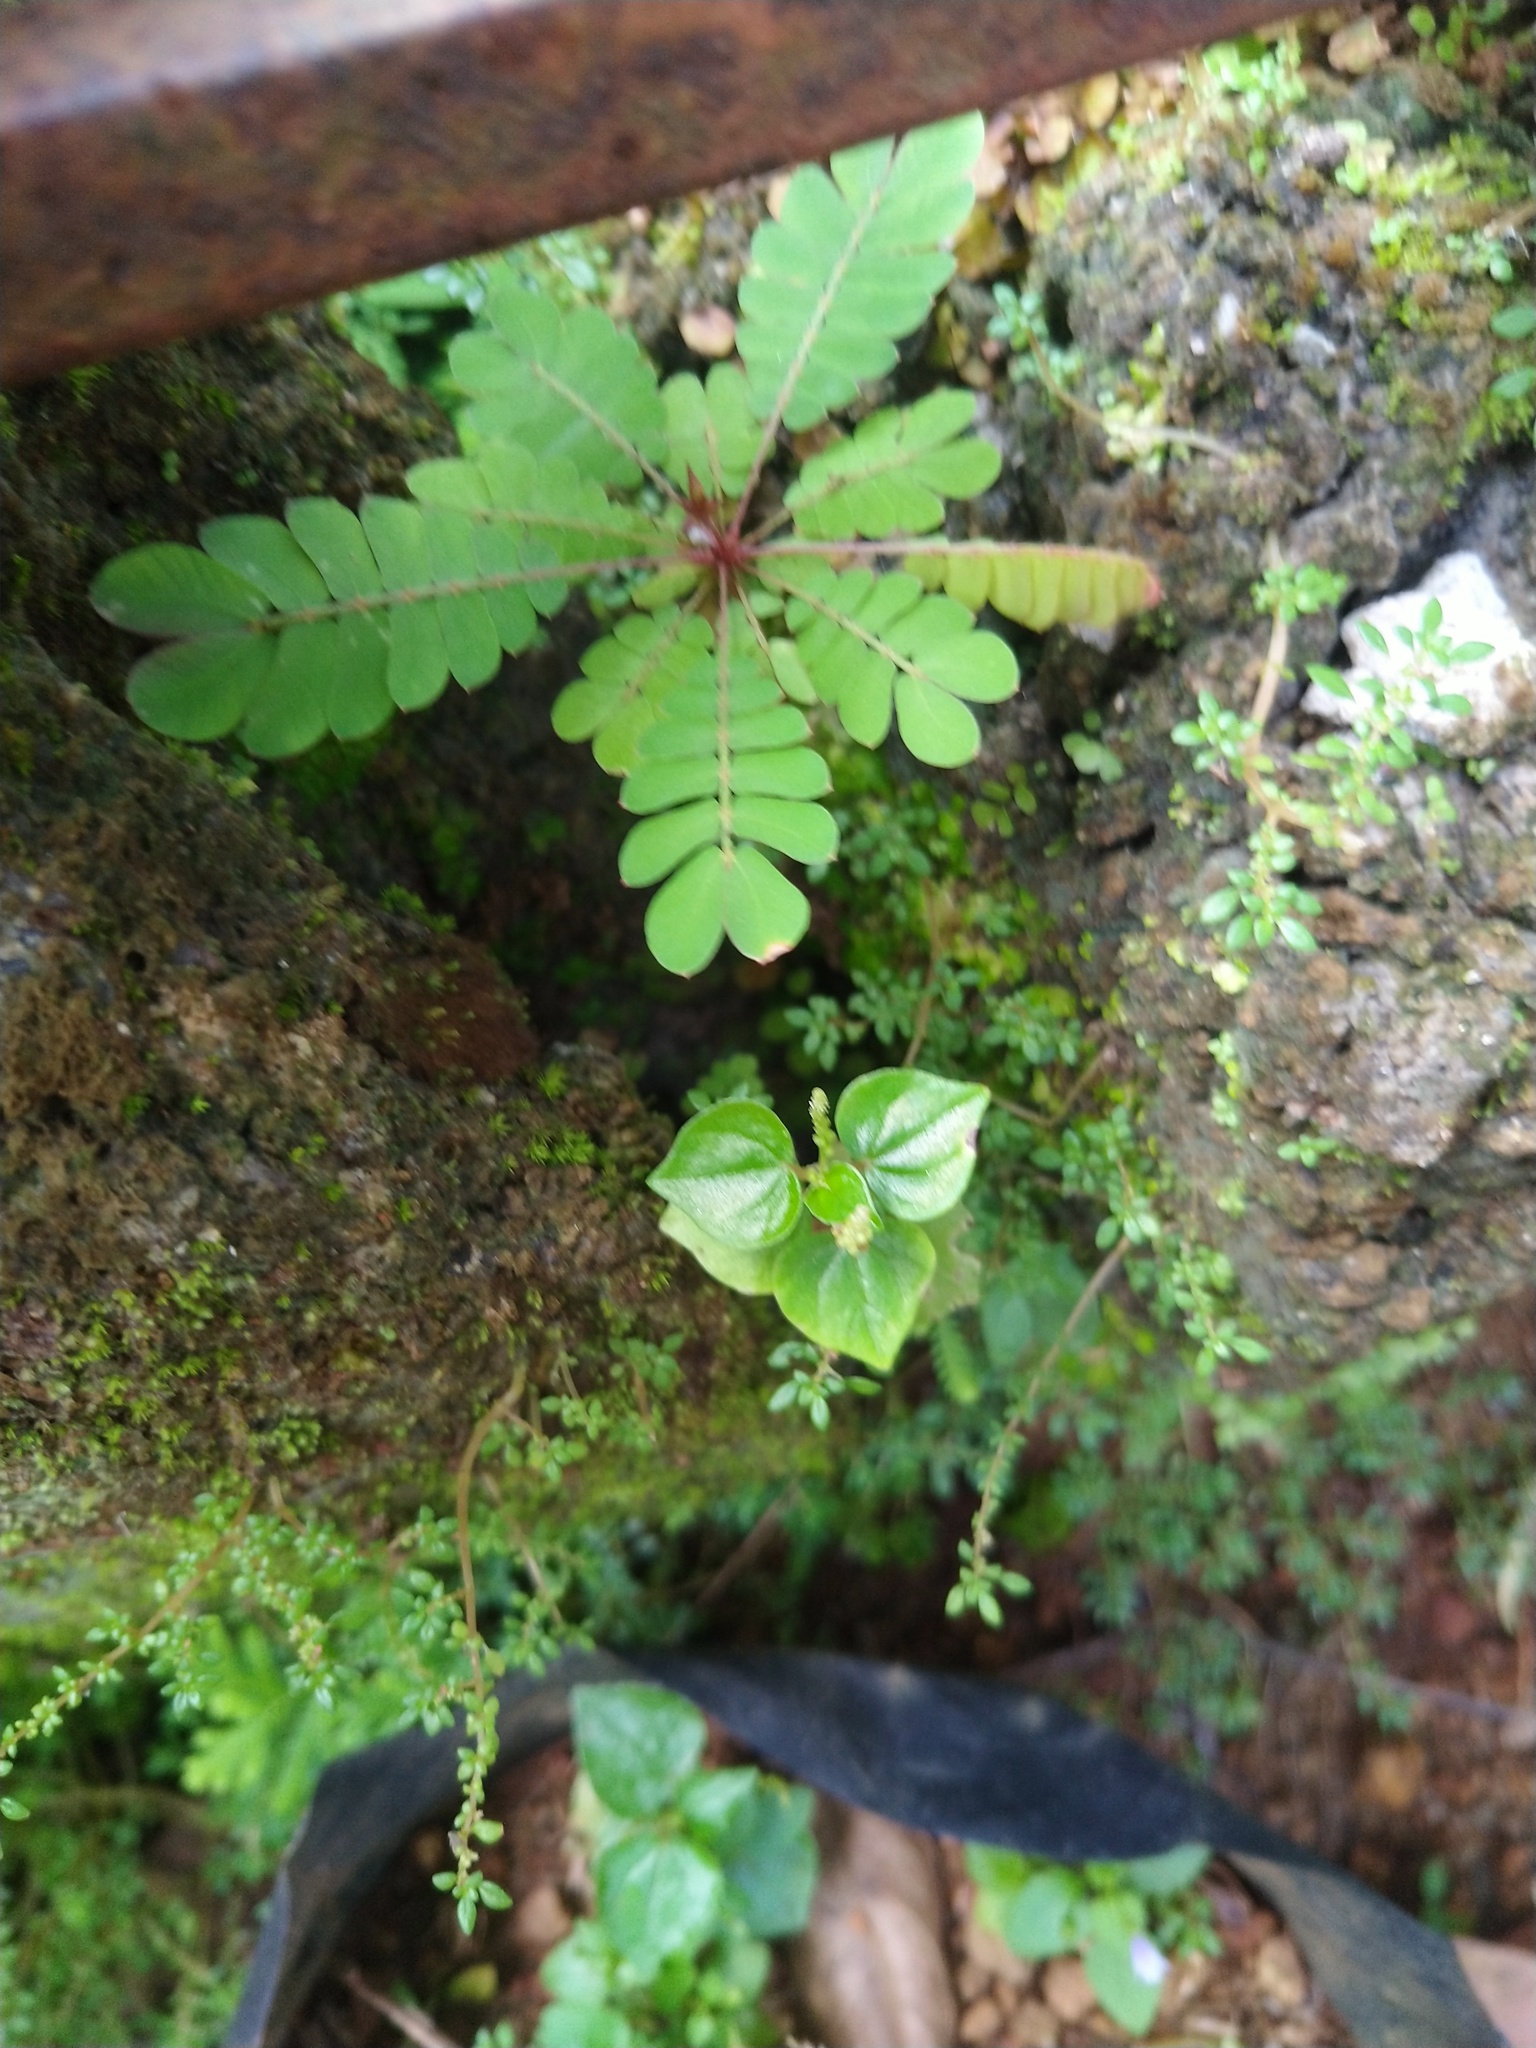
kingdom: Plantae
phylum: Tracheophyta
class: Magnoliopsida
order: Oxalidales
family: Oxalidaceae
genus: Biophytum
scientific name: Biophytum sensitivum
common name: Lifeplant
